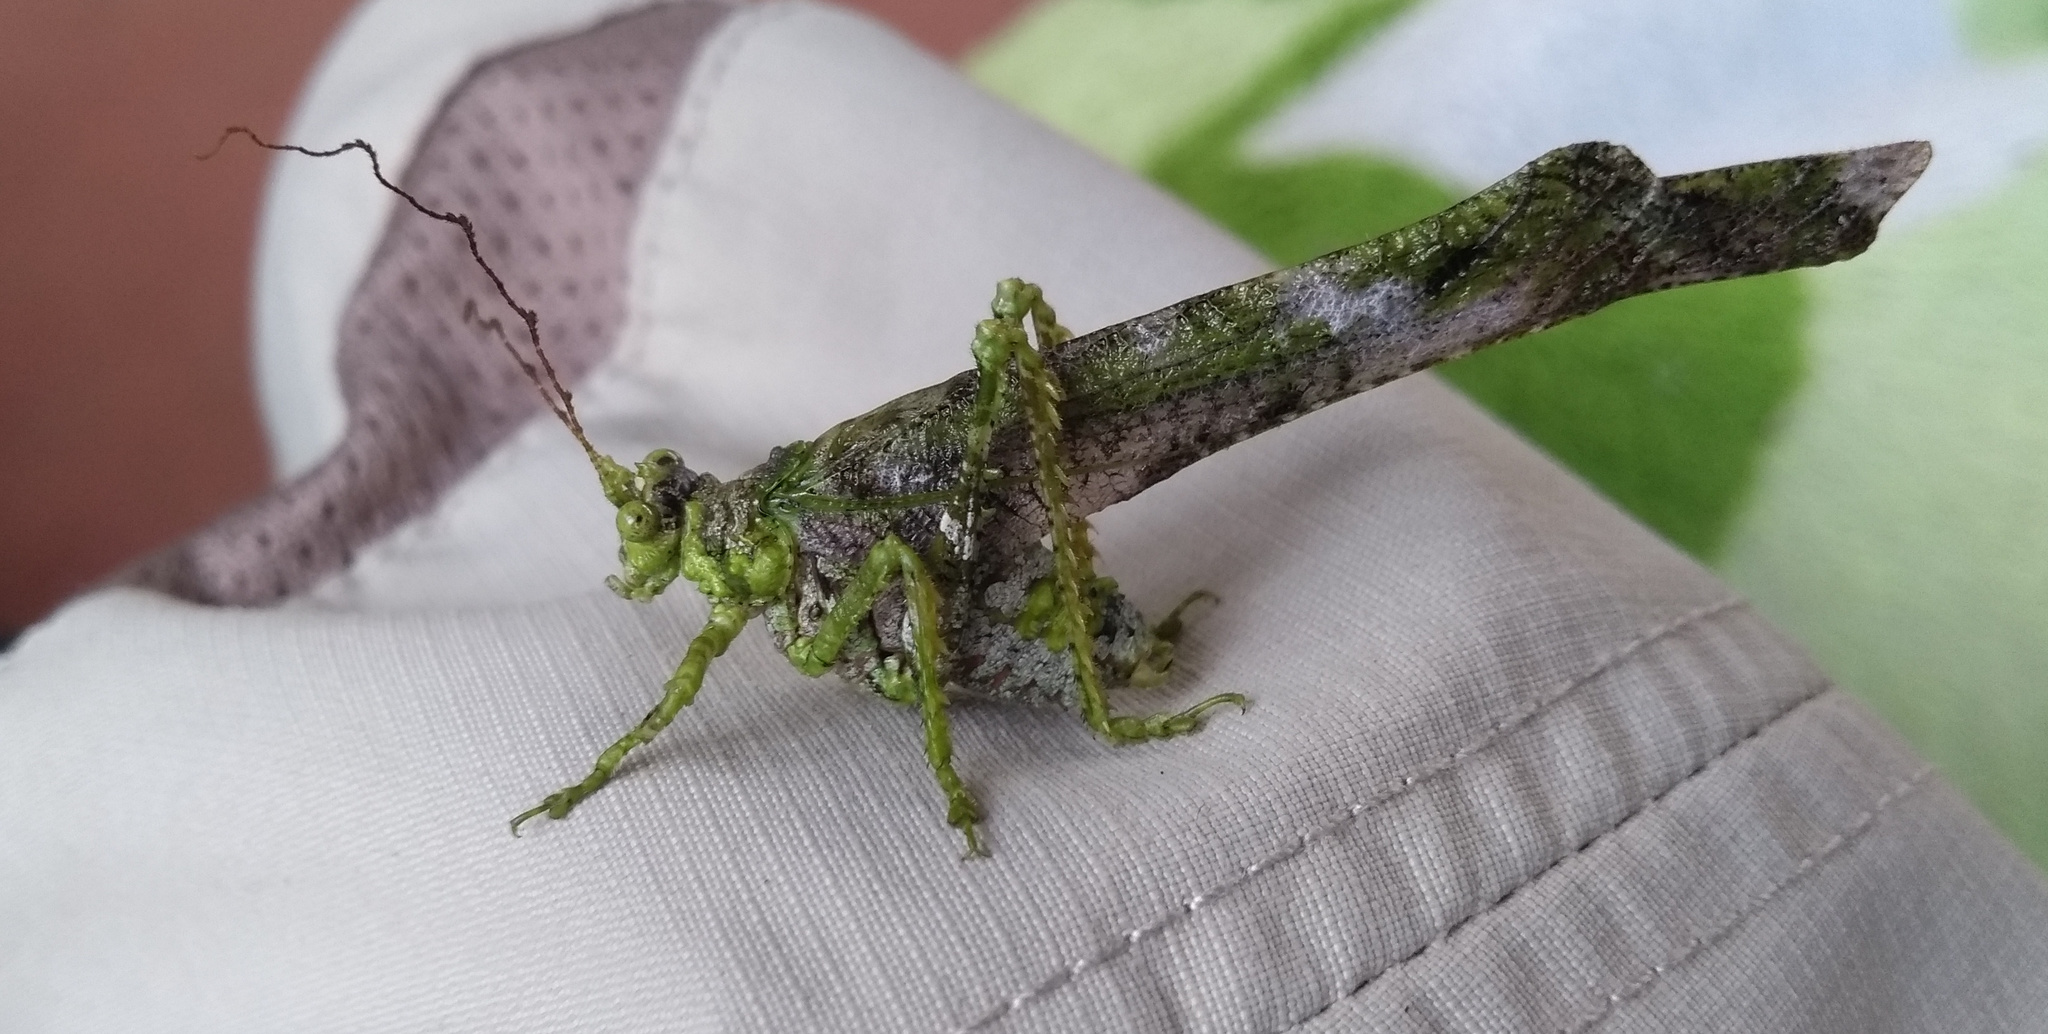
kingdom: Animalia
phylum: Arthropoda
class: Insecta
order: Orthoptera
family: Tettigoniidae
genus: Anaphidna
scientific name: Anaphidna verrucosa
